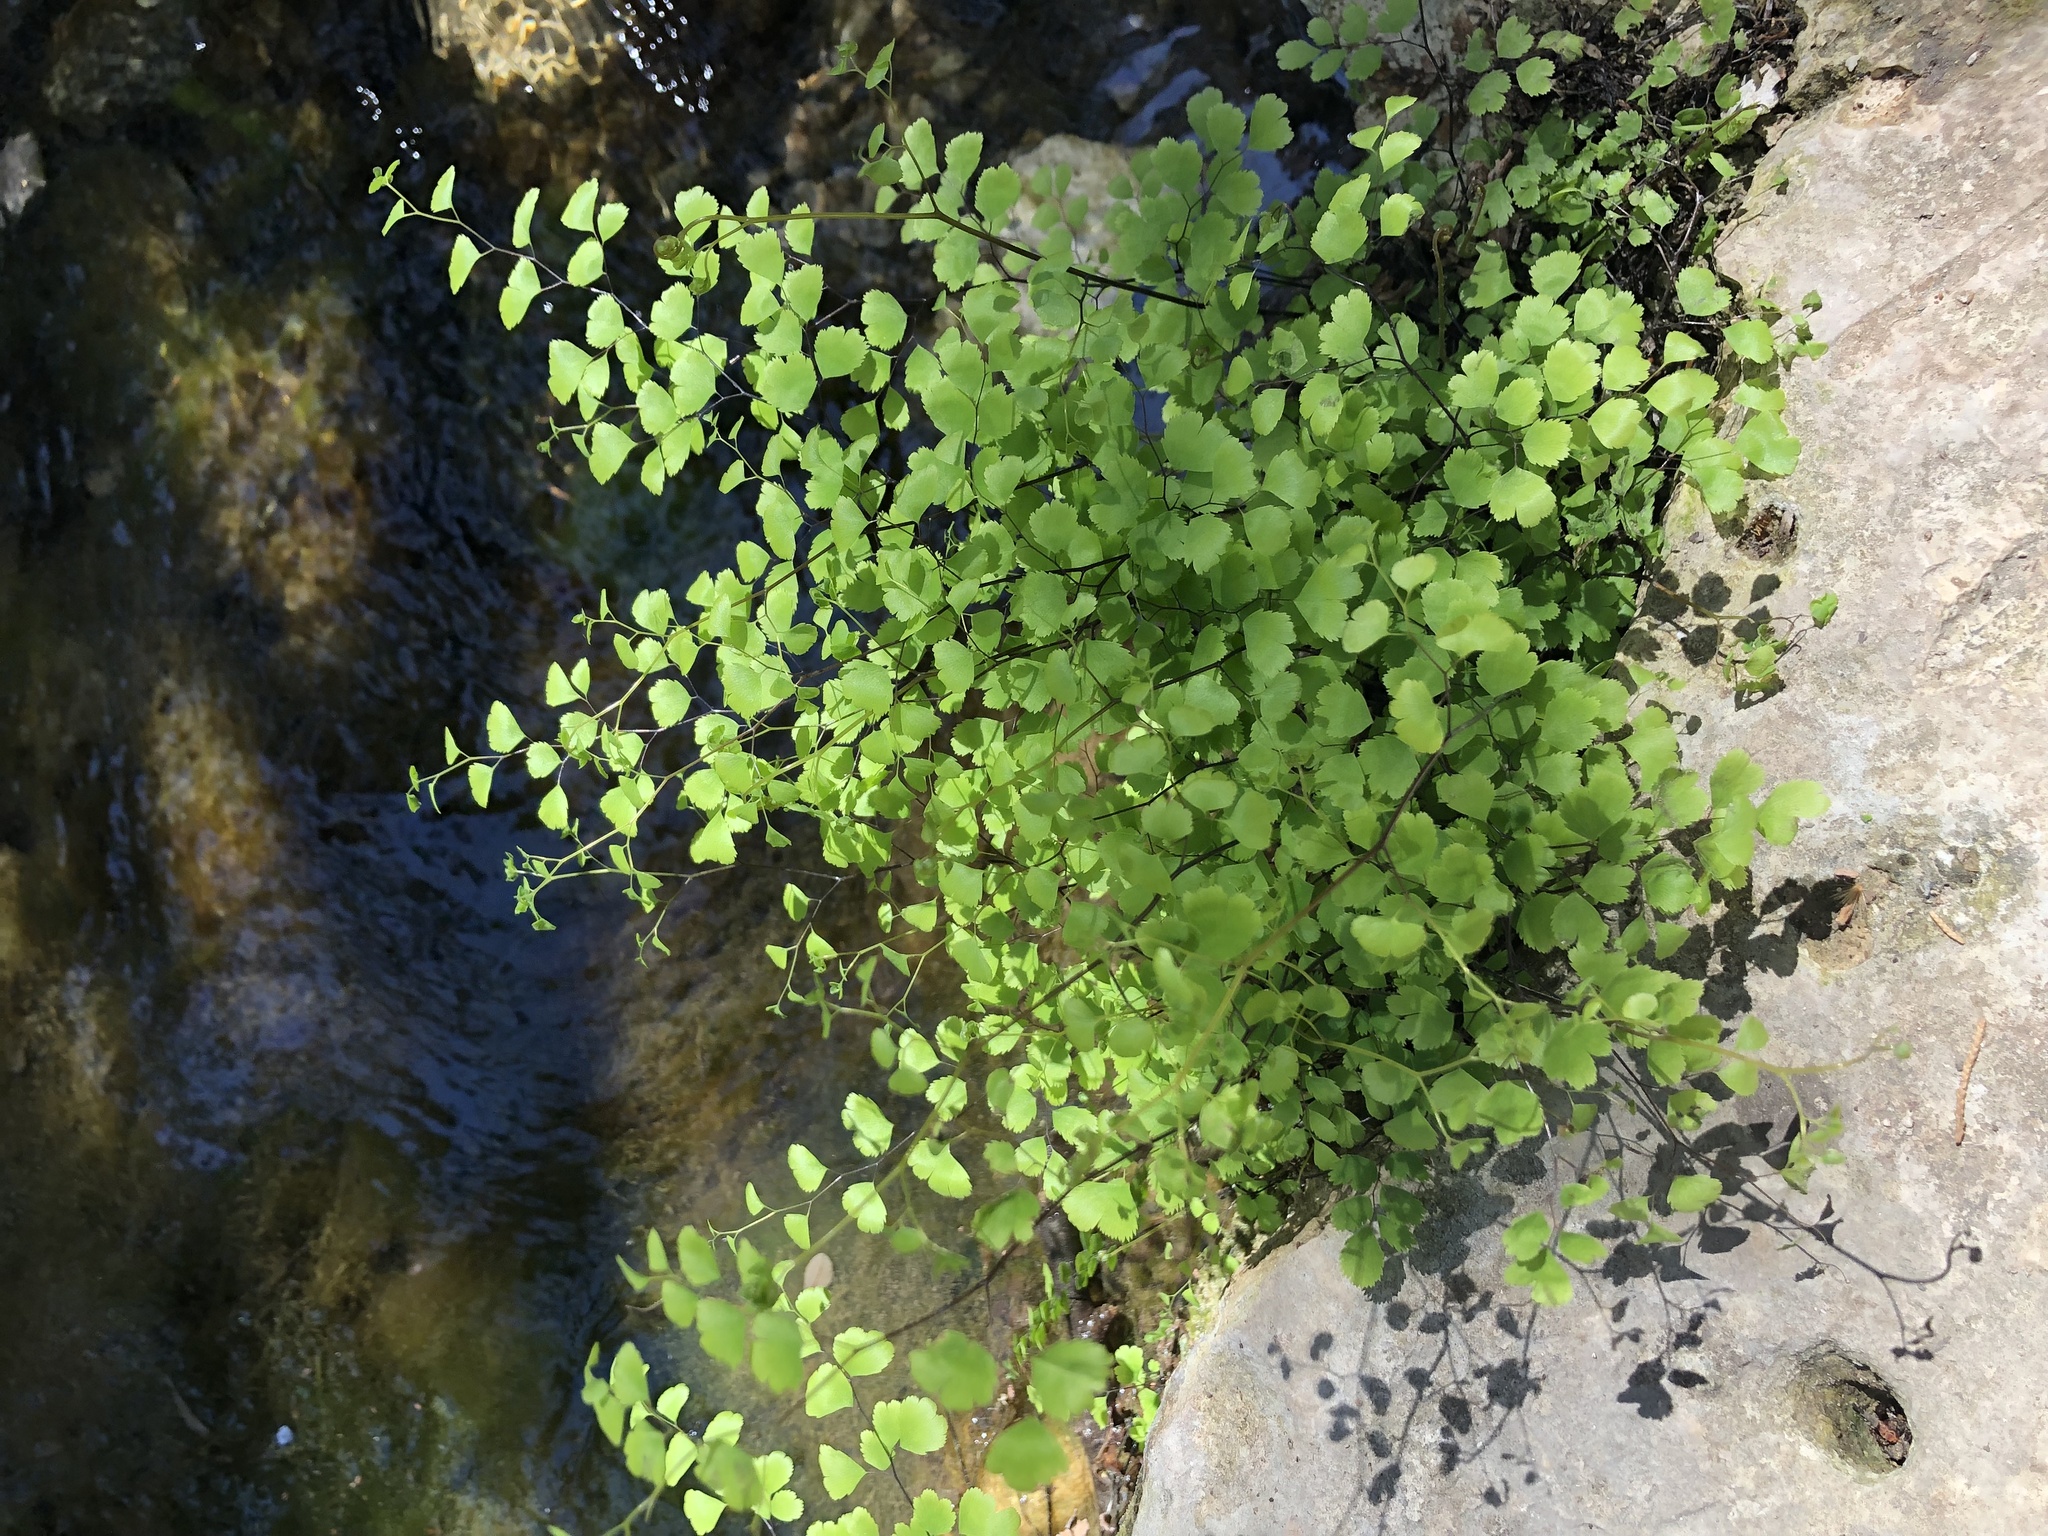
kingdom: Plantae
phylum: Tracheophyta
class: Polypodiopsida
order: Polypodiales
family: Pteridaceae
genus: Adiantum
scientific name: Adiantum capillus-veneris
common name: Maidenhair fern
